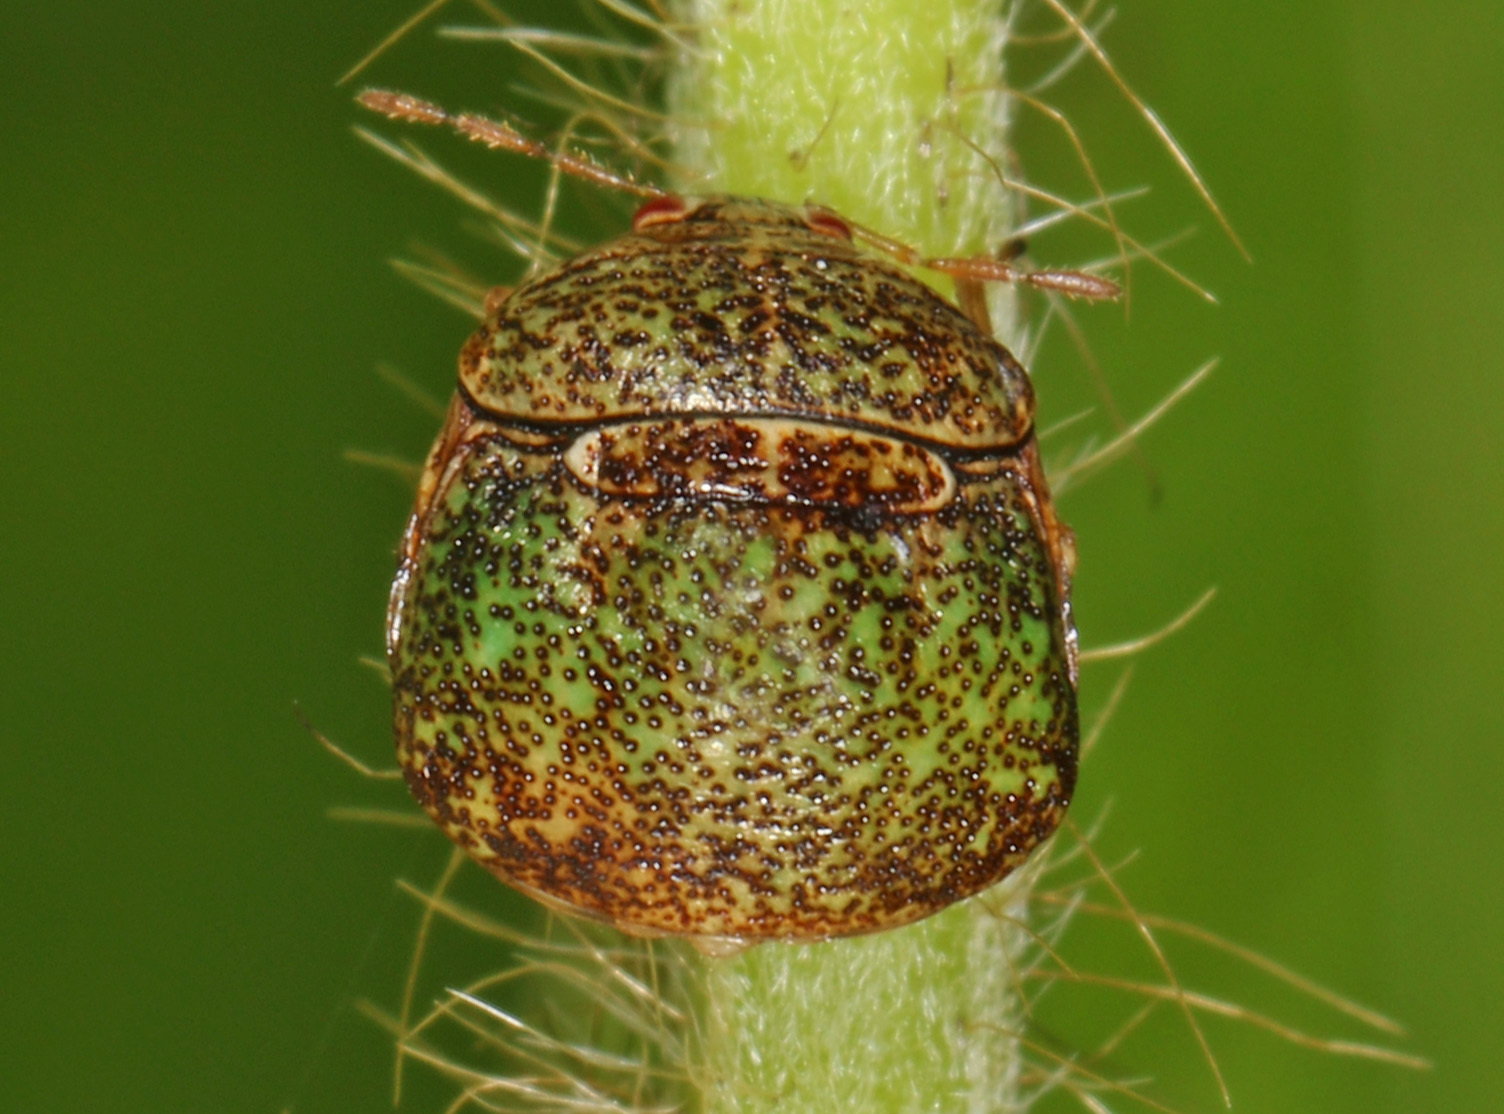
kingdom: Animalia
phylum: Arthropoda
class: Insecta
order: Hemiptera
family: Plataspidae
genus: Megacopta
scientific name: Megacopta cribraria
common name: Bean plataspid
